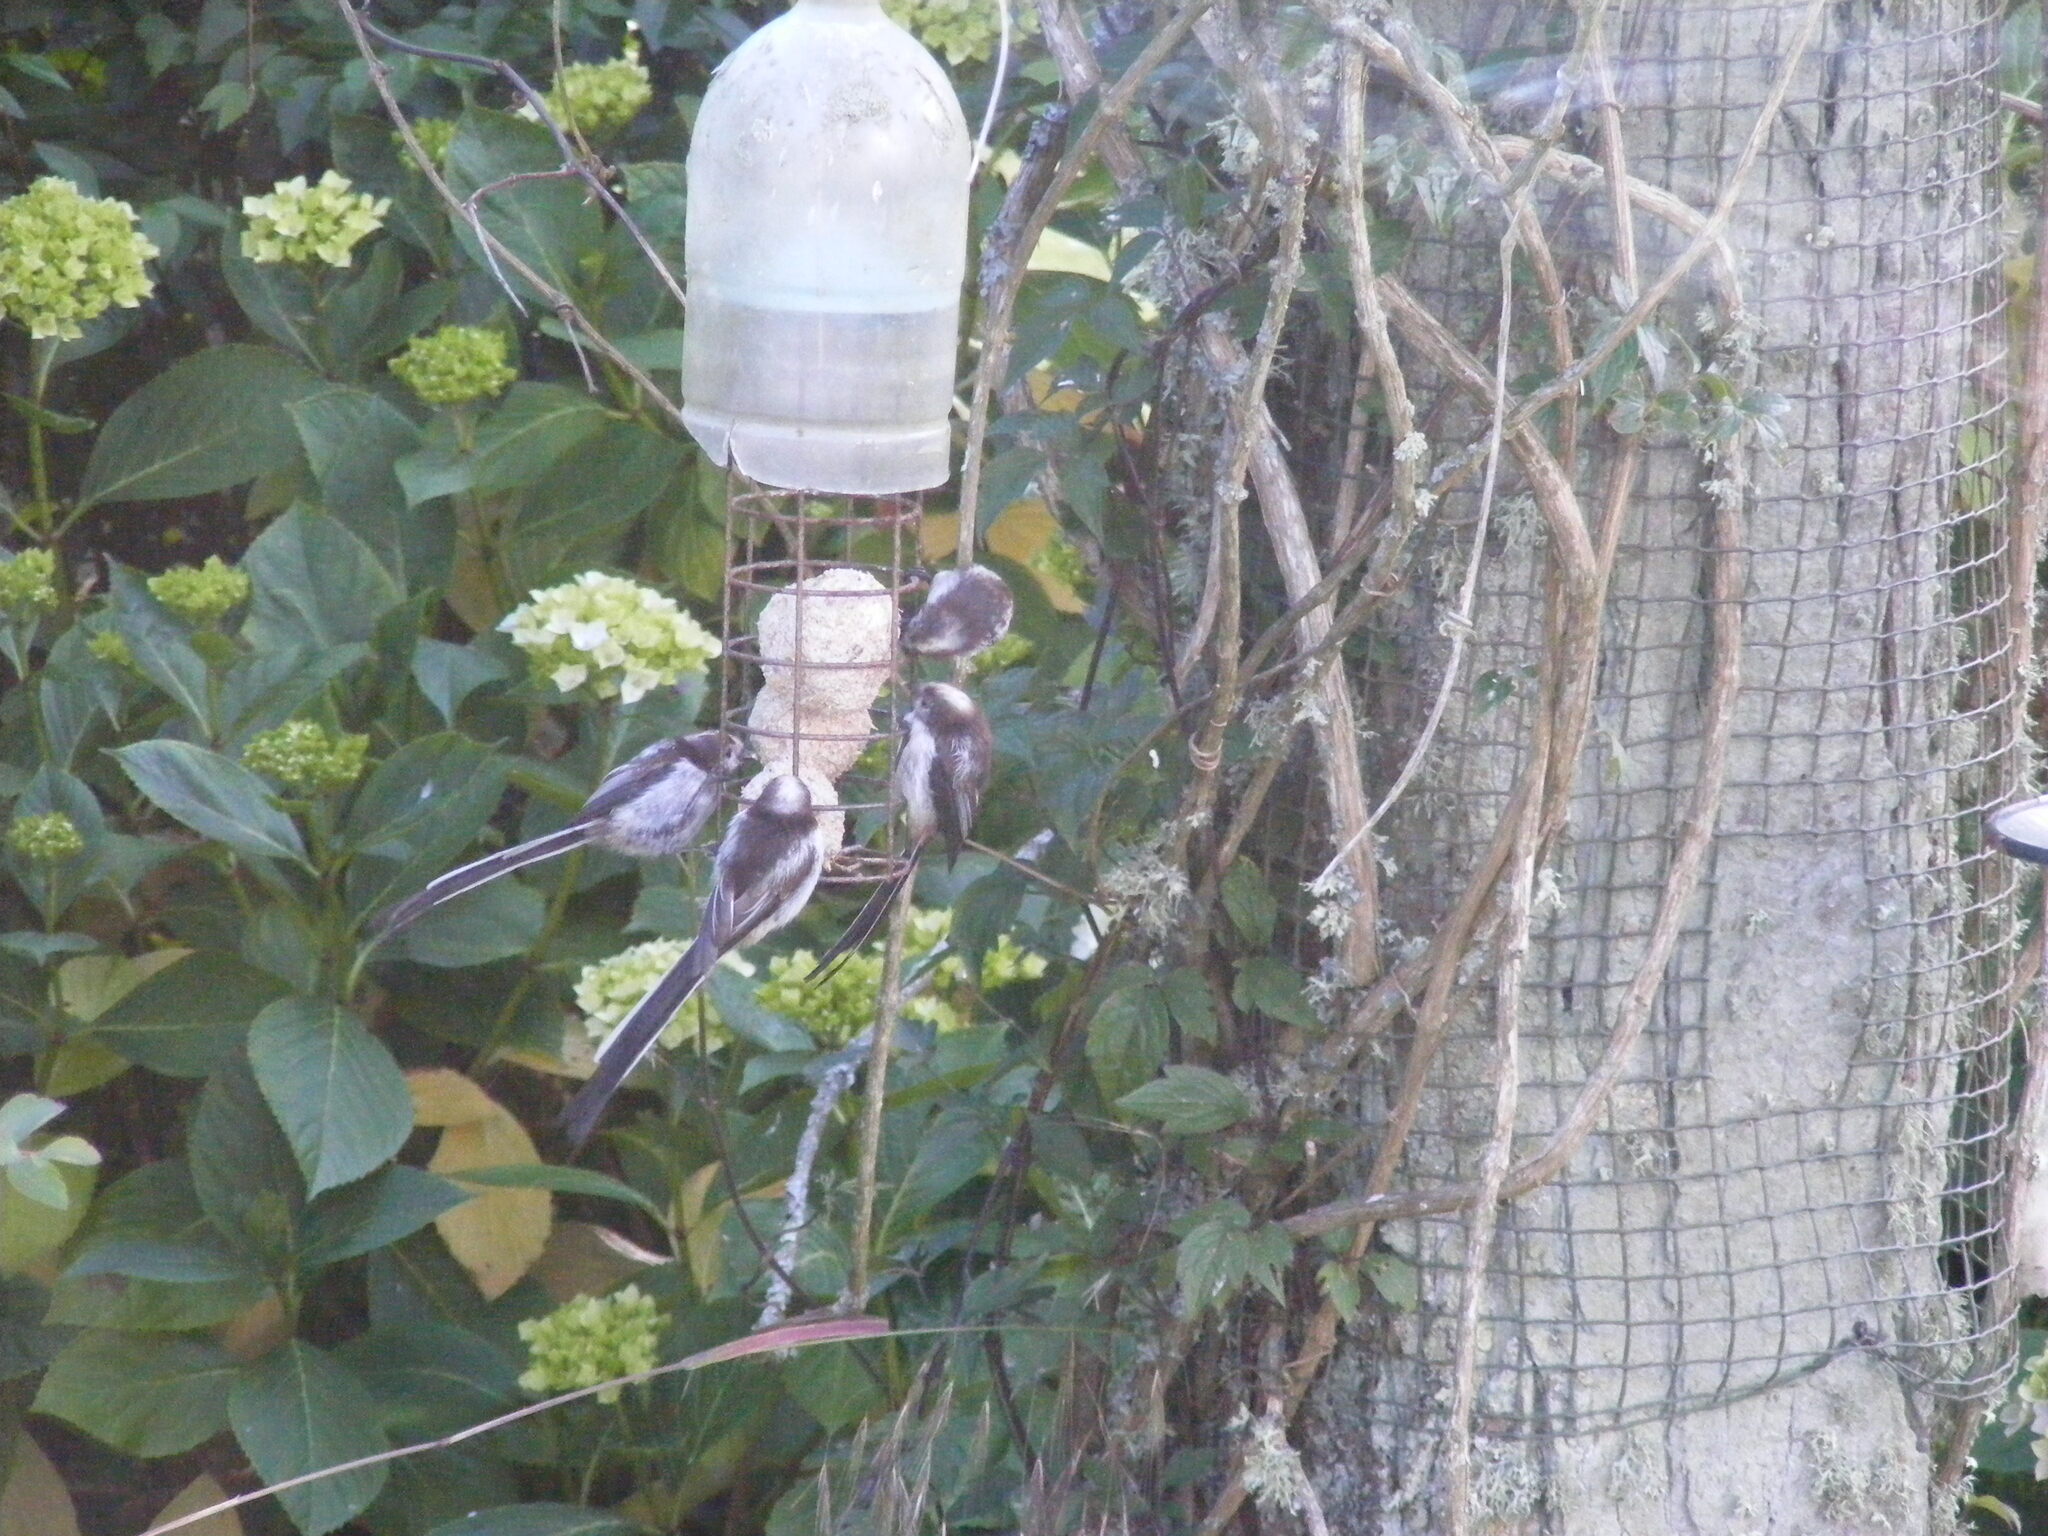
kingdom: Animalia
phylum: Chordata
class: Aves
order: Passeriformes
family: Aegithalidae
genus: Aegithalos
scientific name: Aegithalos caudatus
